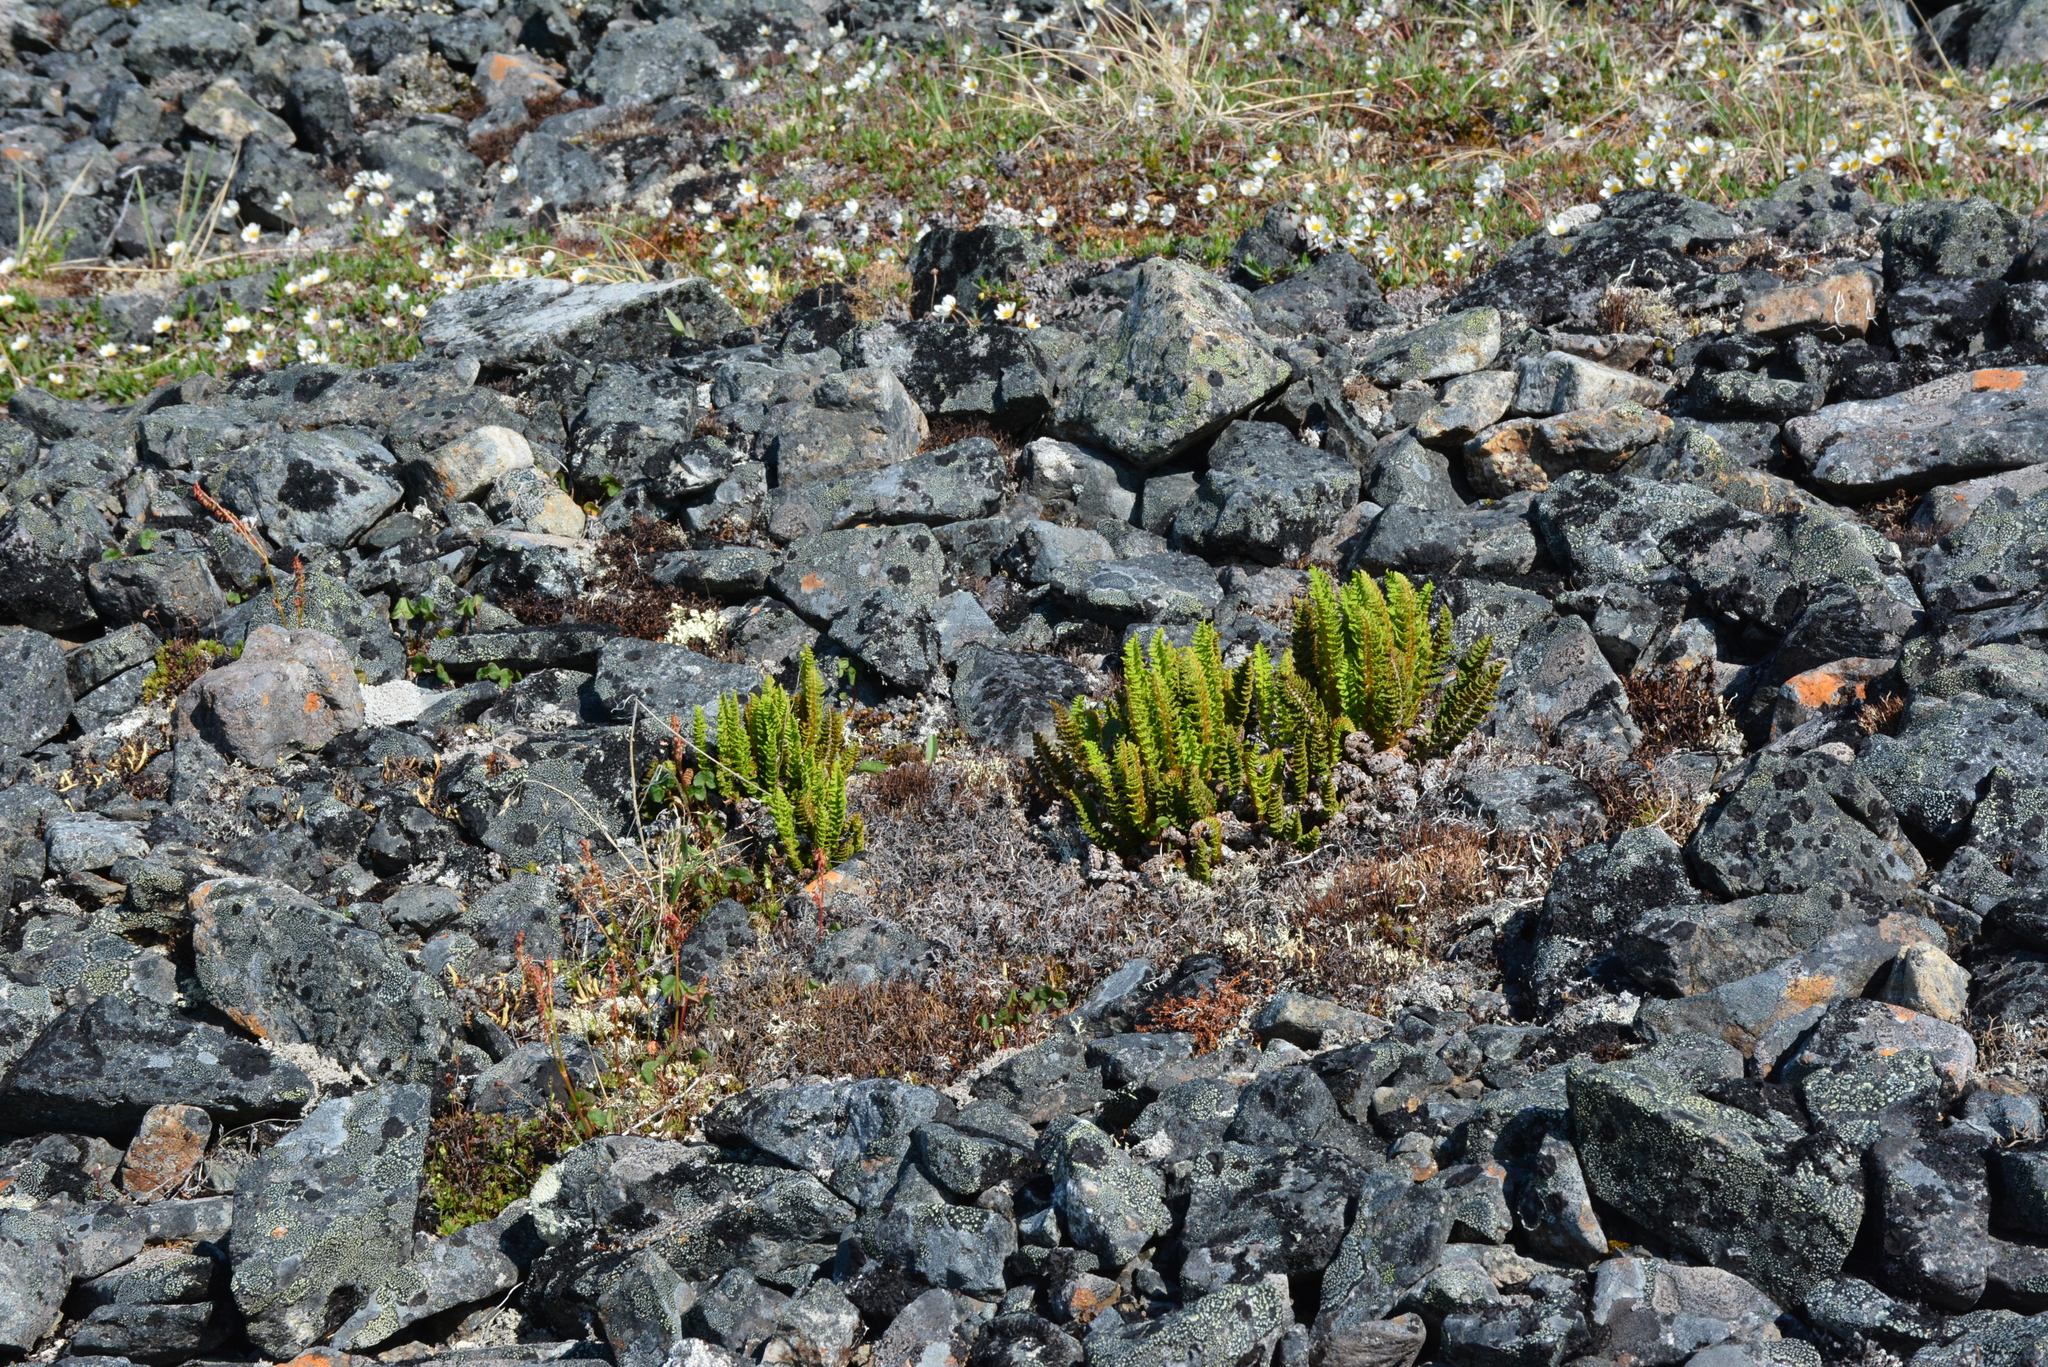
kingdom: Plantae
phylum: Tracheophyta
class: Polypodiopsida
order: Polypodiales
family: Dryopteridaceae
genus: Dryopteris
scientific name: Dryopteris fragrans
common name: Fragrant wood fern
